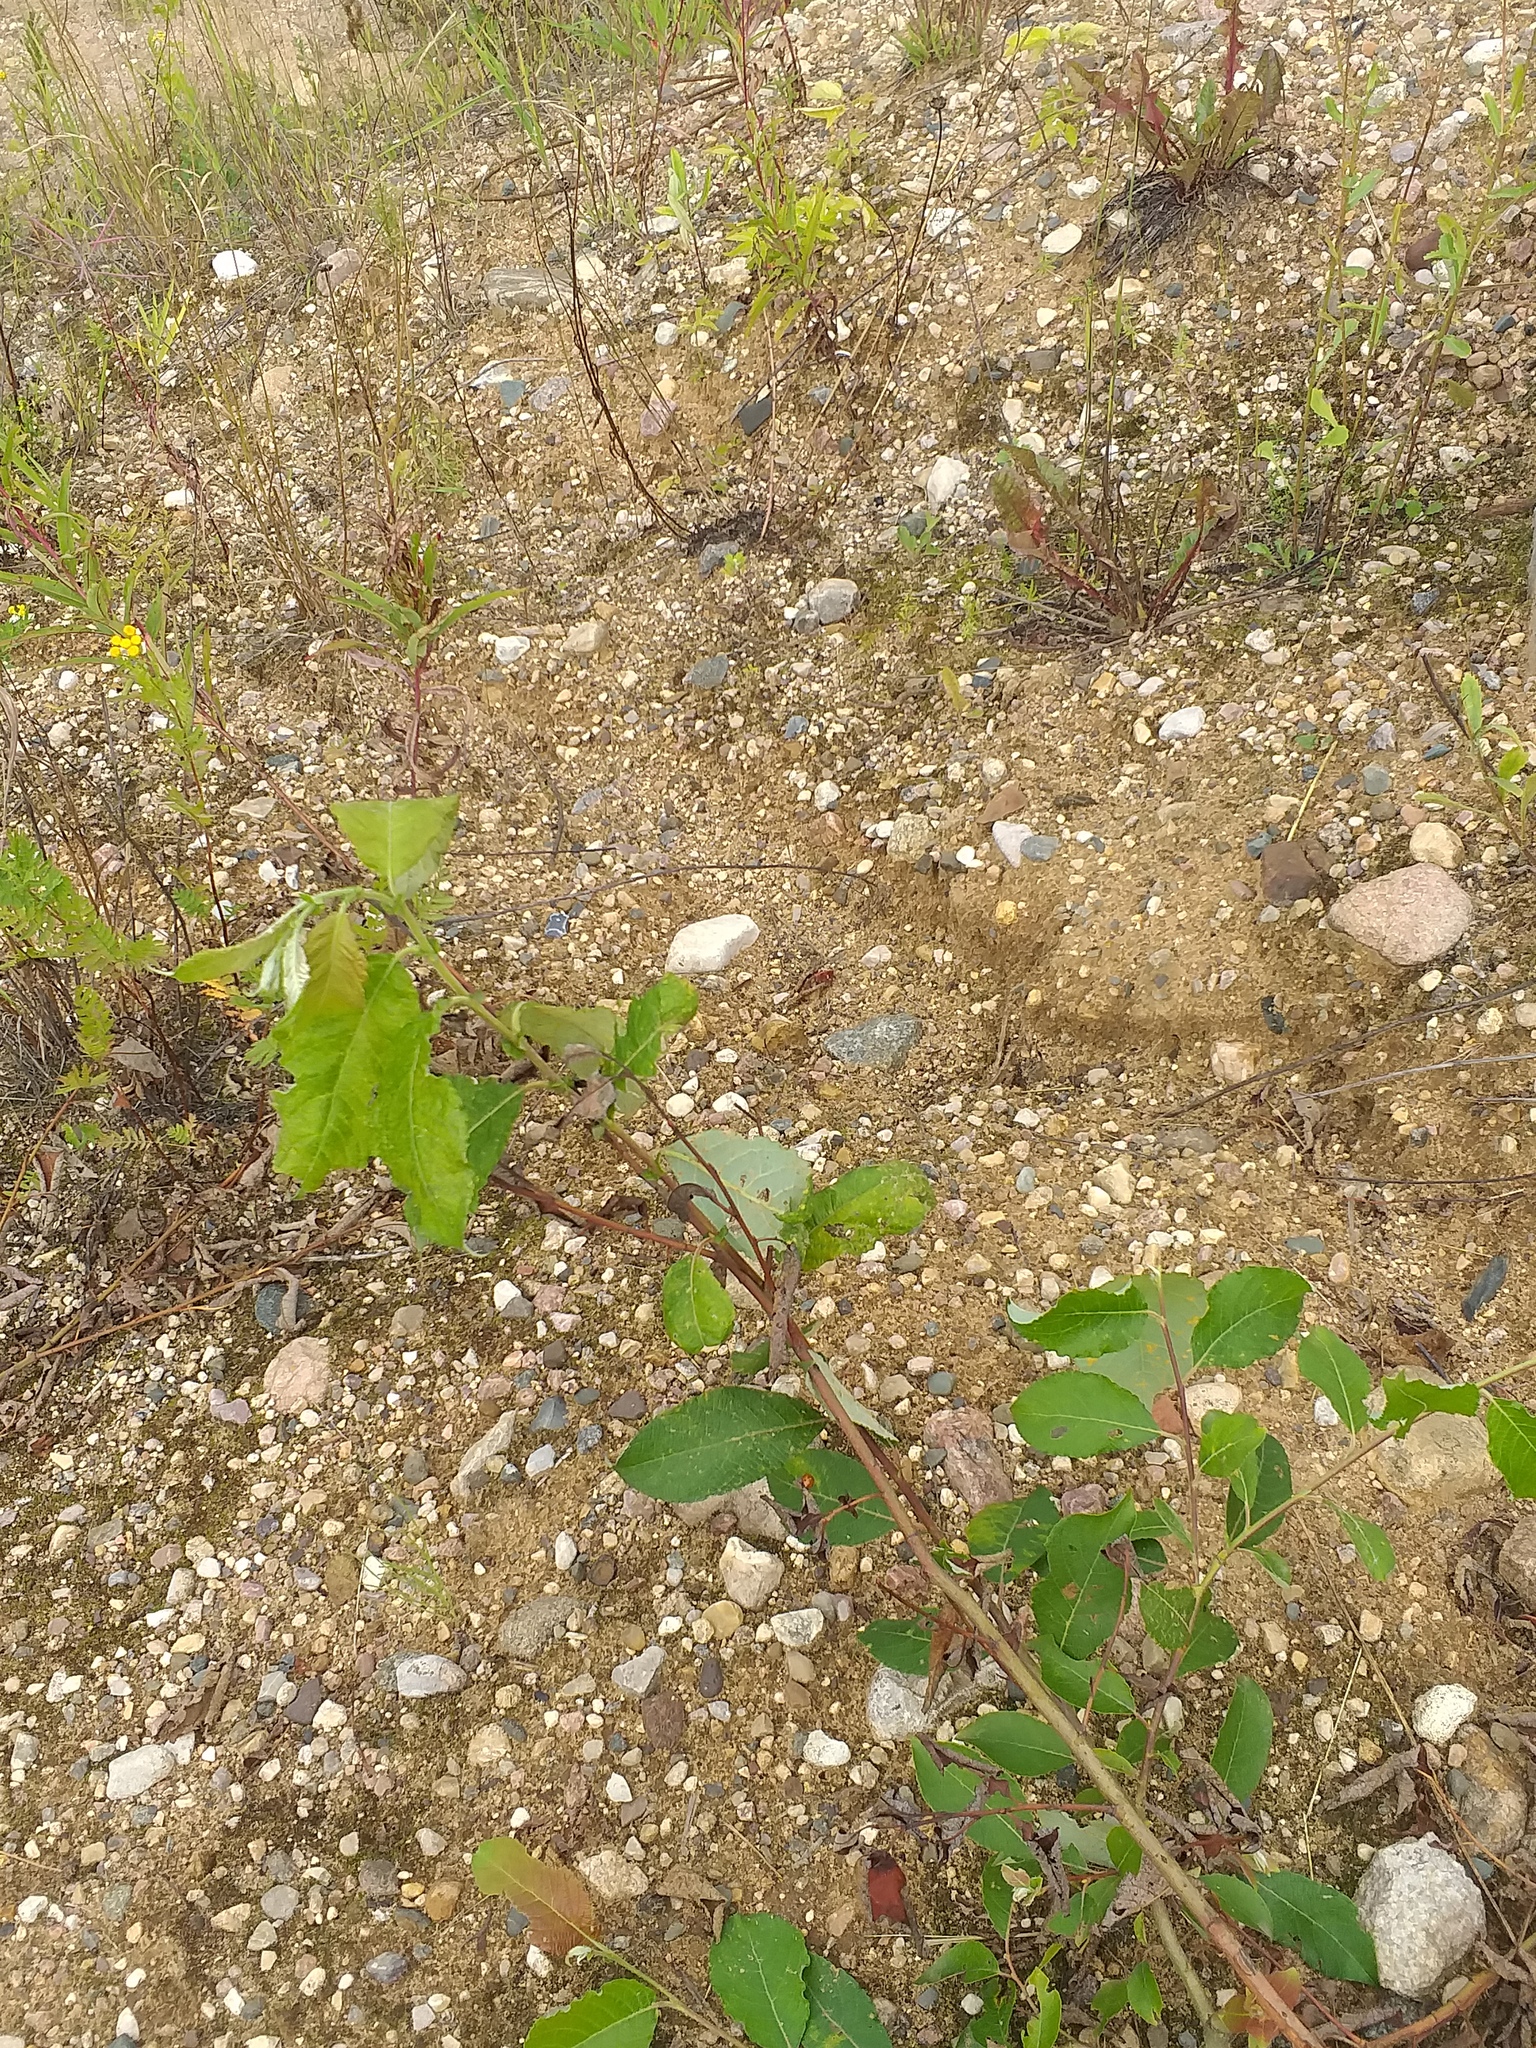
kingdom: Plantae
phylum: Tracheophyta
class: Magnoliopsida
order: Malpighiales
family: Salicaceae
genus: Salix
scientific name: Salix caprea
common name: Goat willow
